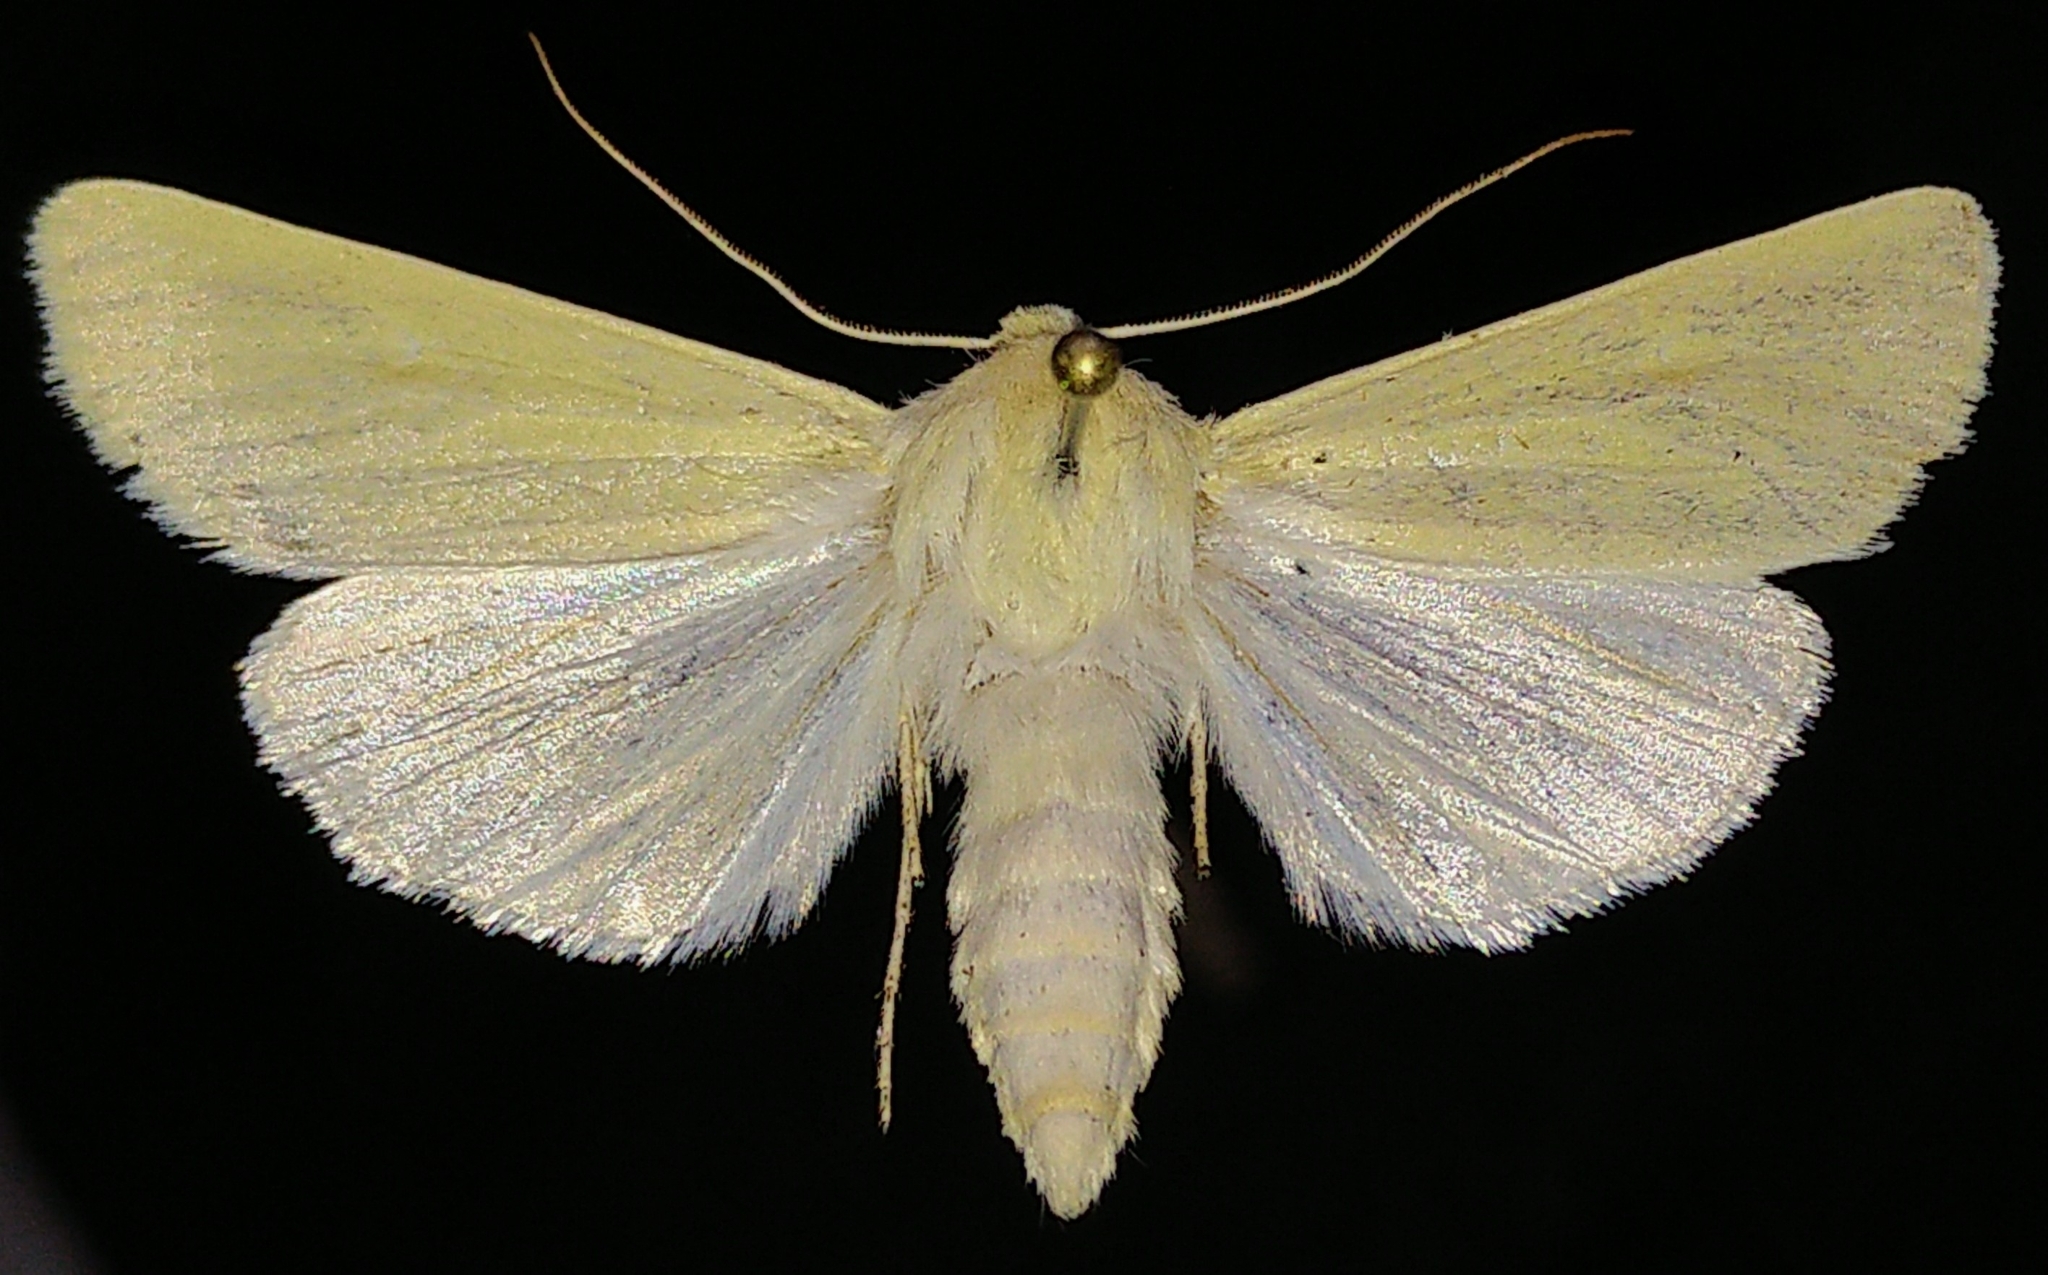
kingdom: Animalia
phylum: Arthropoda
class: Insecta
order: Lepidoptera
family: Noctuidae
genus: Copablepharon
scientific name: Copablepharon grandis
